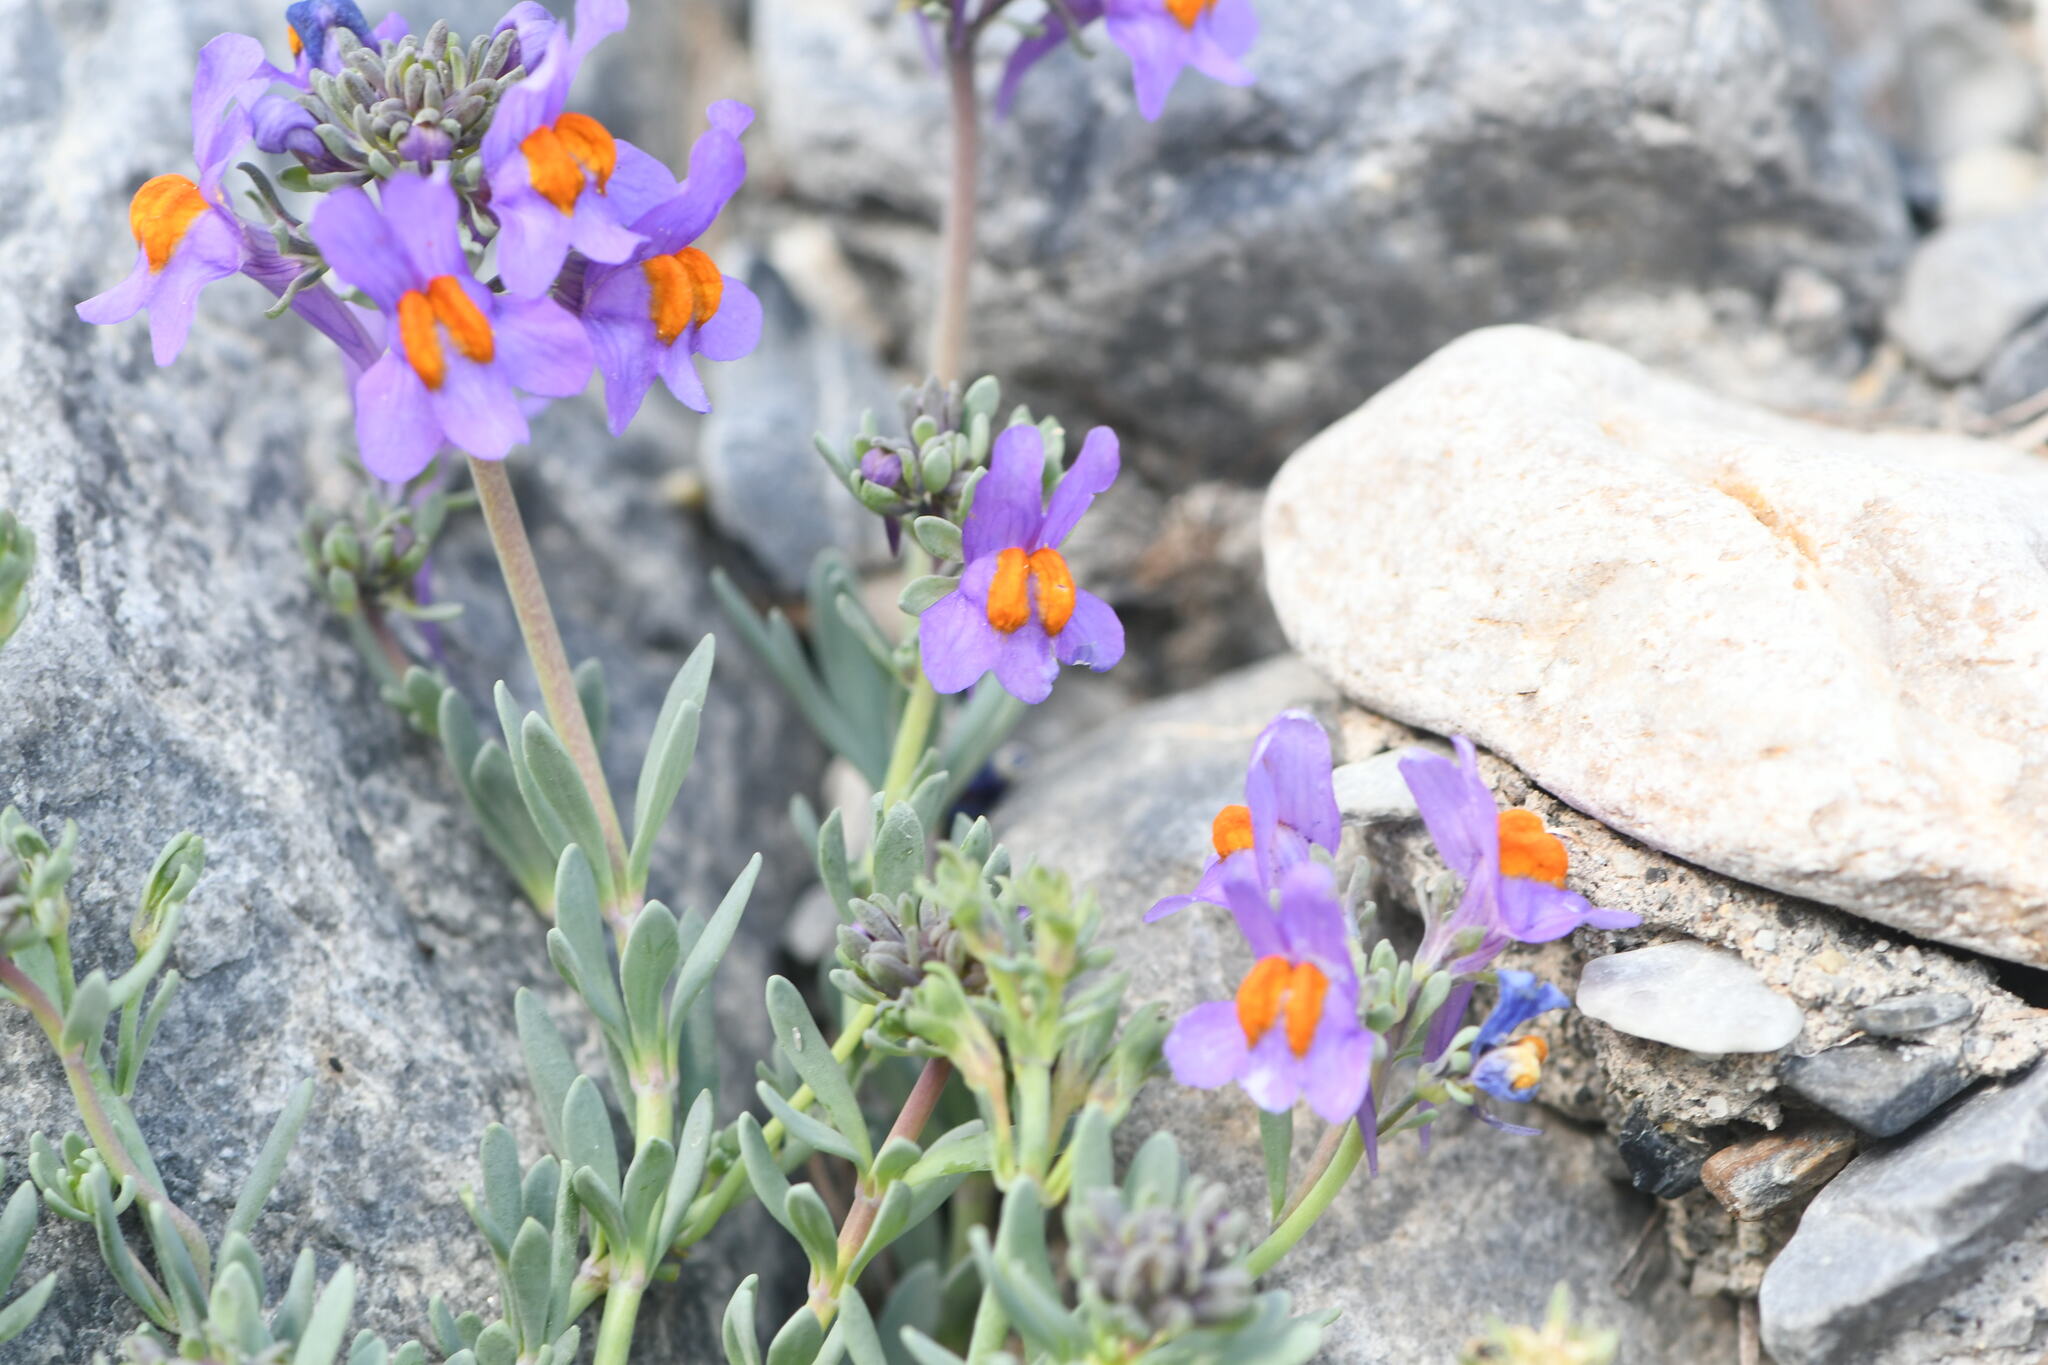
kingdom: Plantae
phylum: Tracheophyta
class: Magnoliopsida
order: Lamiales
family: Plantaginaceae
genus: Linaria
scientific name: Linaria alpina
